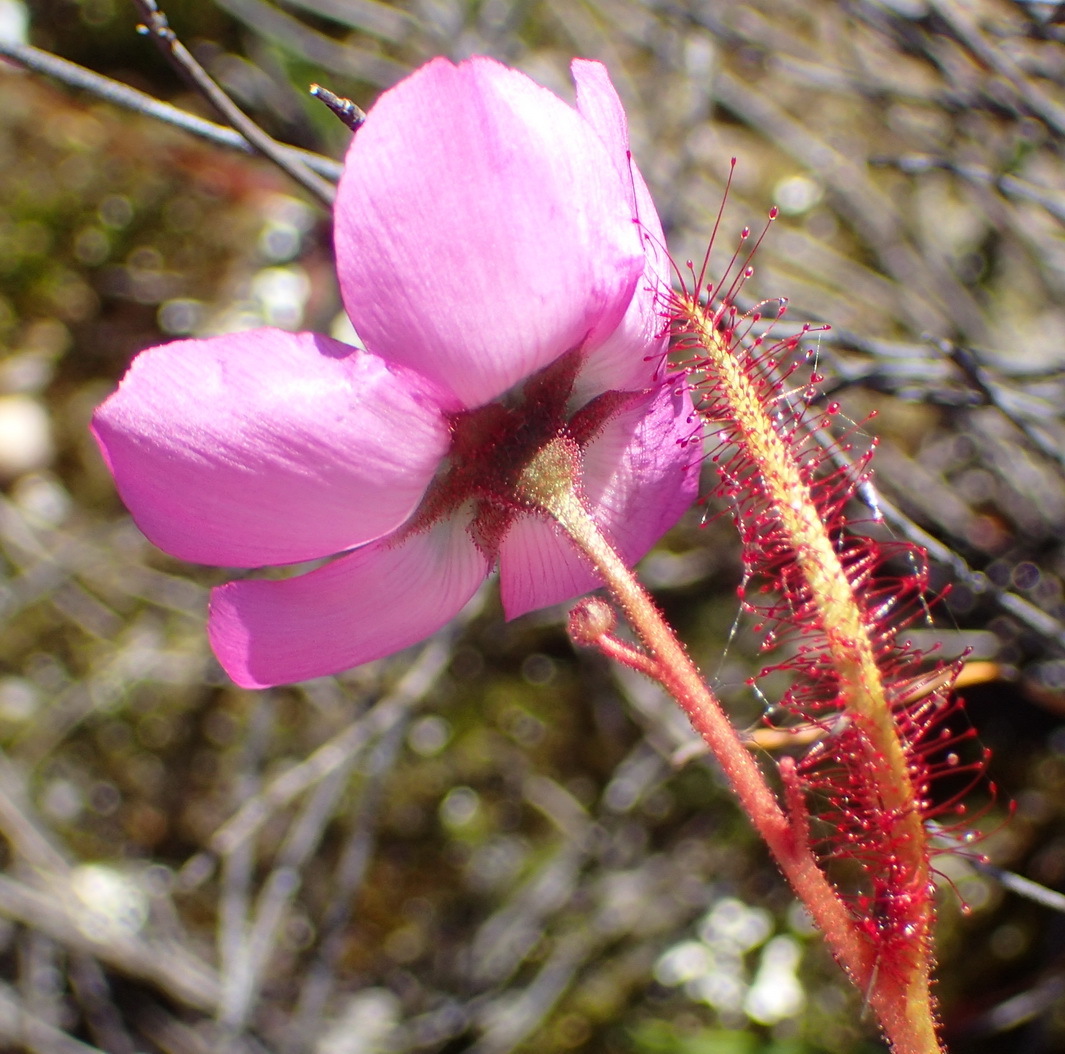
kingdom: Plantae
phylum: Tracheophyta
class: Magnoliopsida
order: Caryophyllales
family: Droseraceae
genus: Drosera
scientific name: Drosera cistiflora
